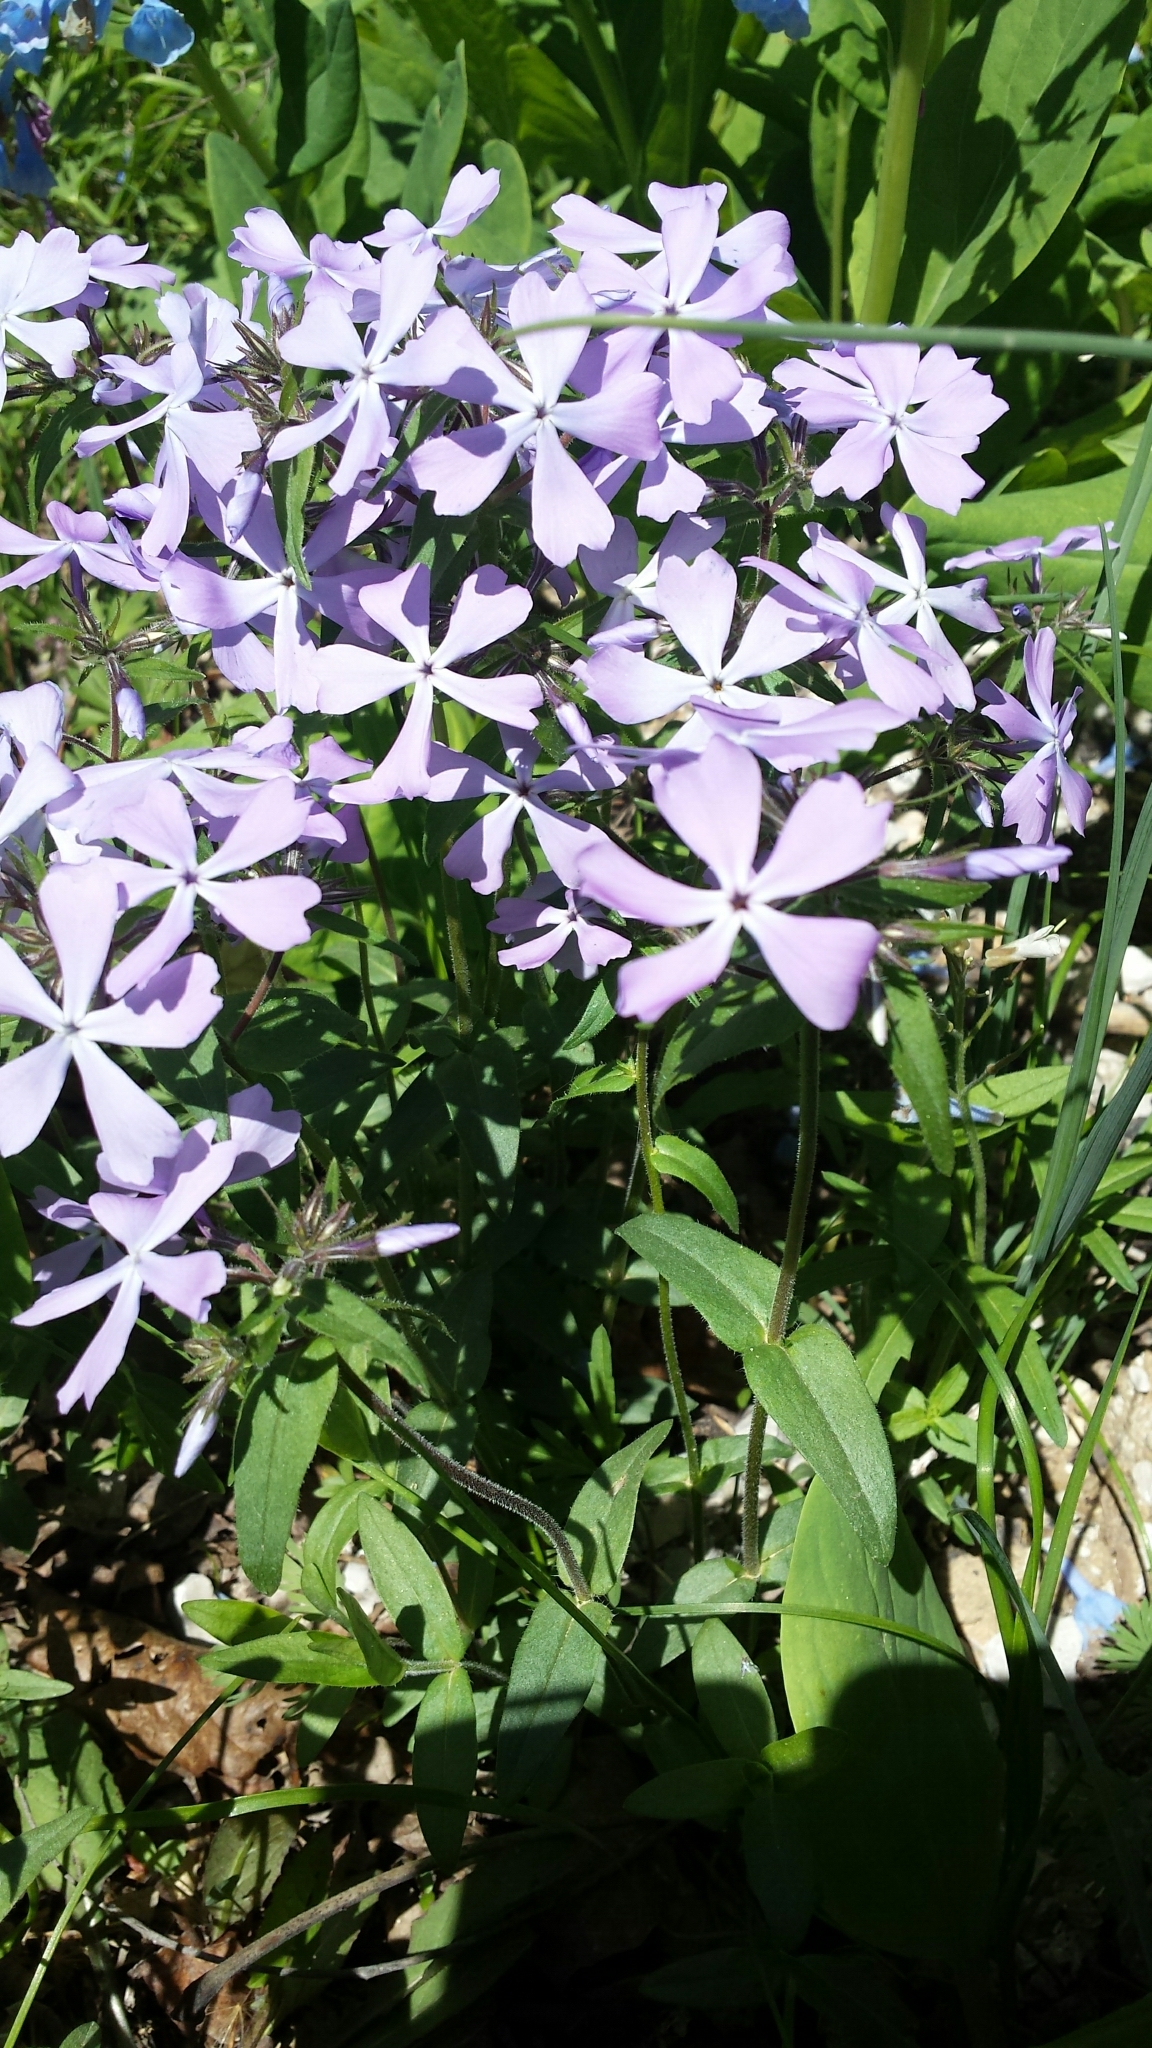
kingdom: Plantae
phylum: Tracheophyta
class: Magnoliopsida
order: Ericales
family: Polemoniaceae
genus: Phlox
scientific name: Phlox divaricata
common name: Blue phlox
